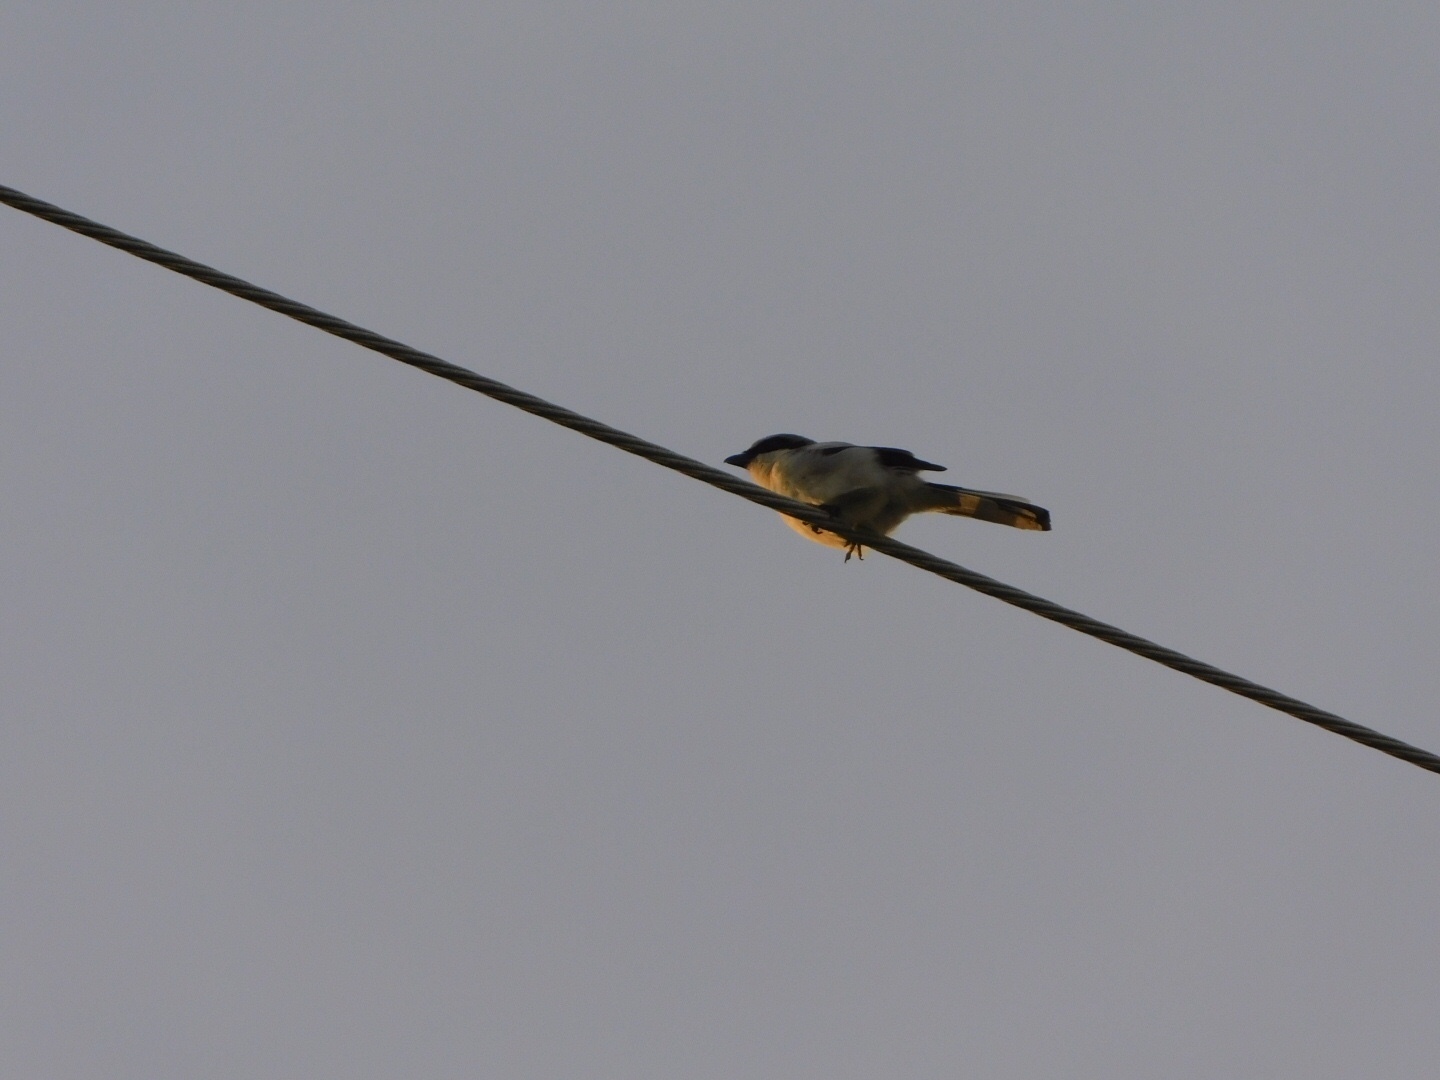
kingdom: Animalia
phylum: Chordata
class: Aves
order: Passeriformes
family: Laniidae
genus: Lanius
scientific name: Lanius ludovicianus
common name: Loggerhead shrike
